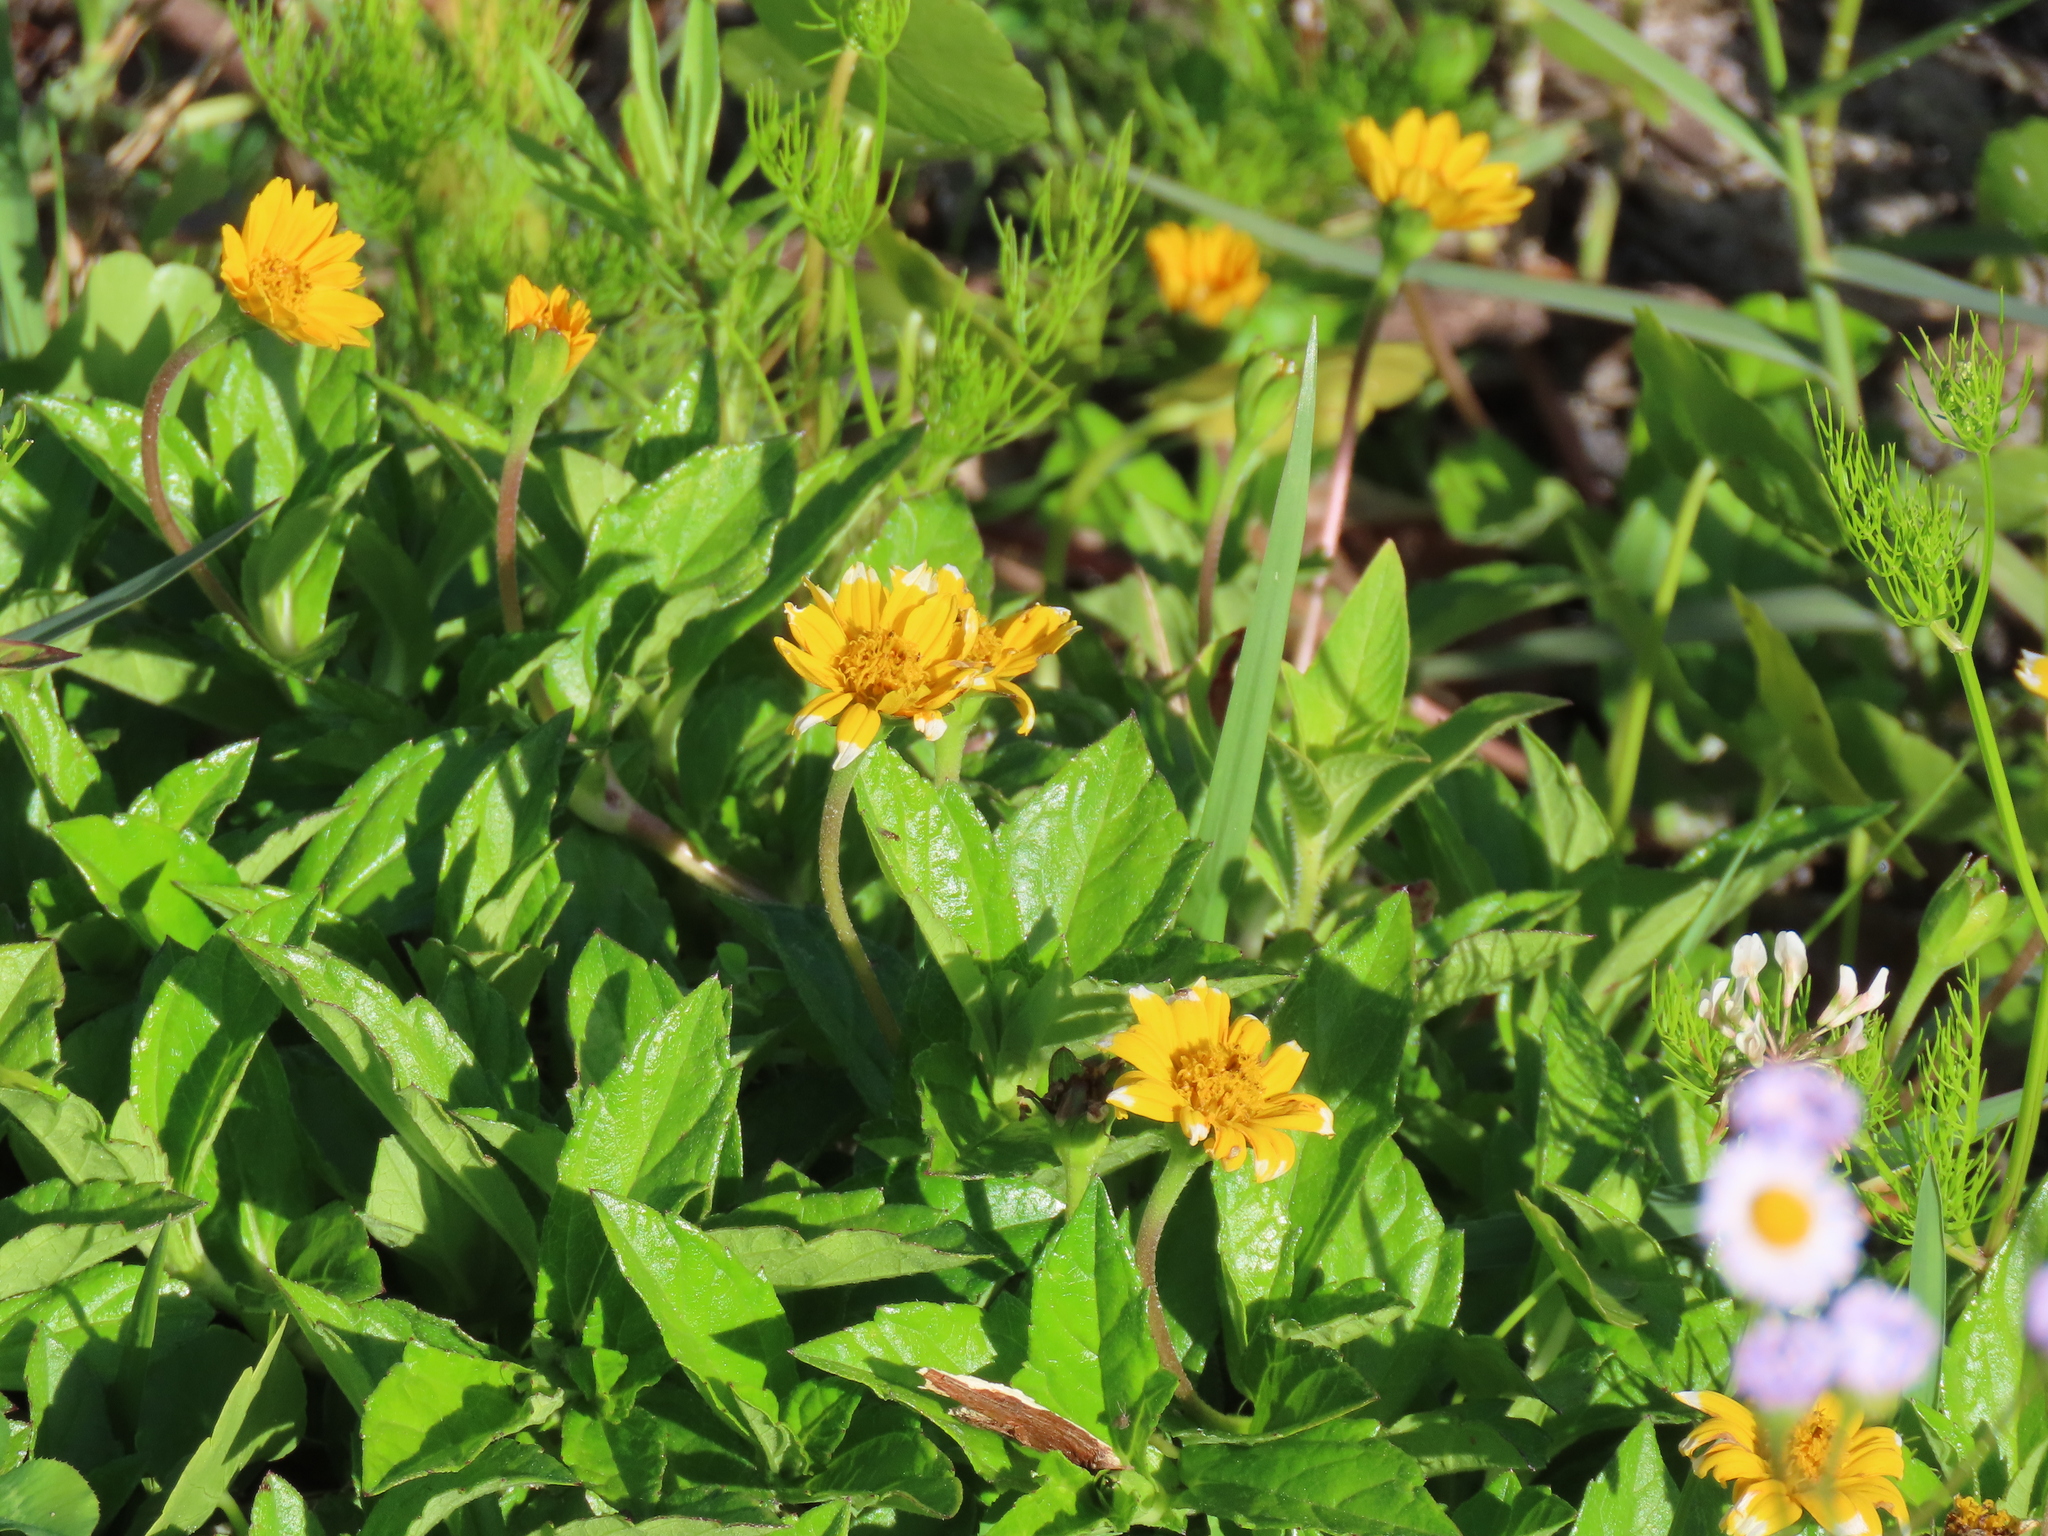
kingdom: Plantae
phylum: Tracheophyta
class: Magnoliopsida
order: Asterales
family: Asteraceae
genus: Sphagneticola
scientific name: Sphagneticola trilobata
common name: Bay biscayne creeping-oxeye
